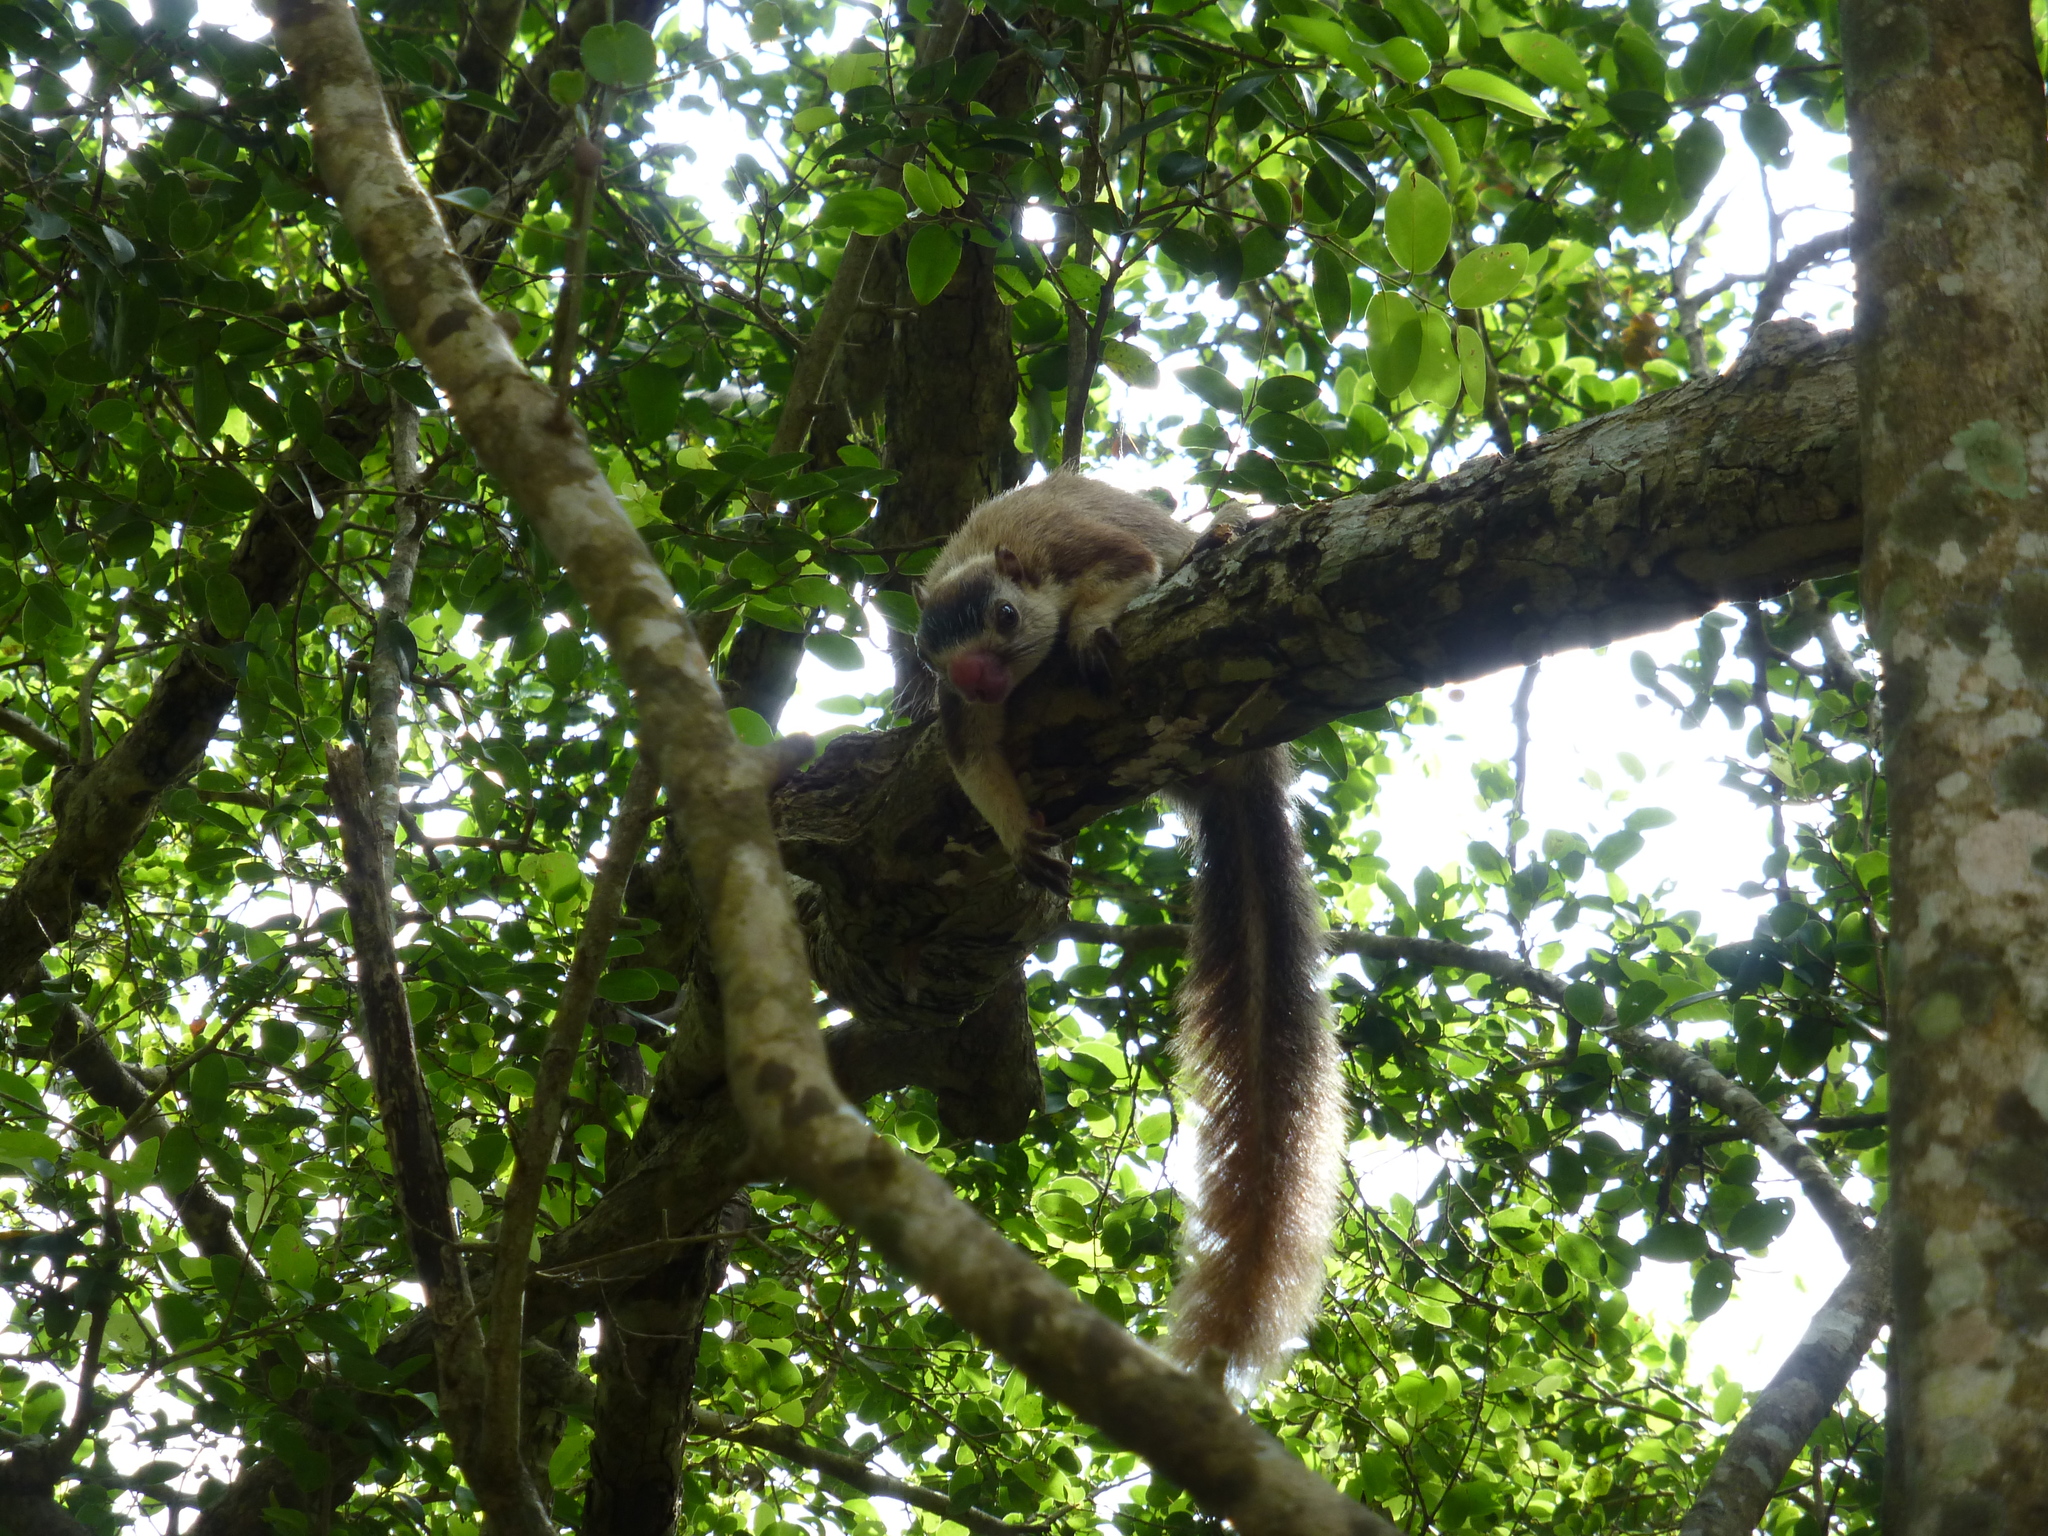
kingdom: Animalia
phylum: Chordata
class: Mammalia
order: Rodentia
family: Sciuridae
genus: Ratufa
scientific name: Ratufa macroura
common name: Sri lankan giant squirrel
